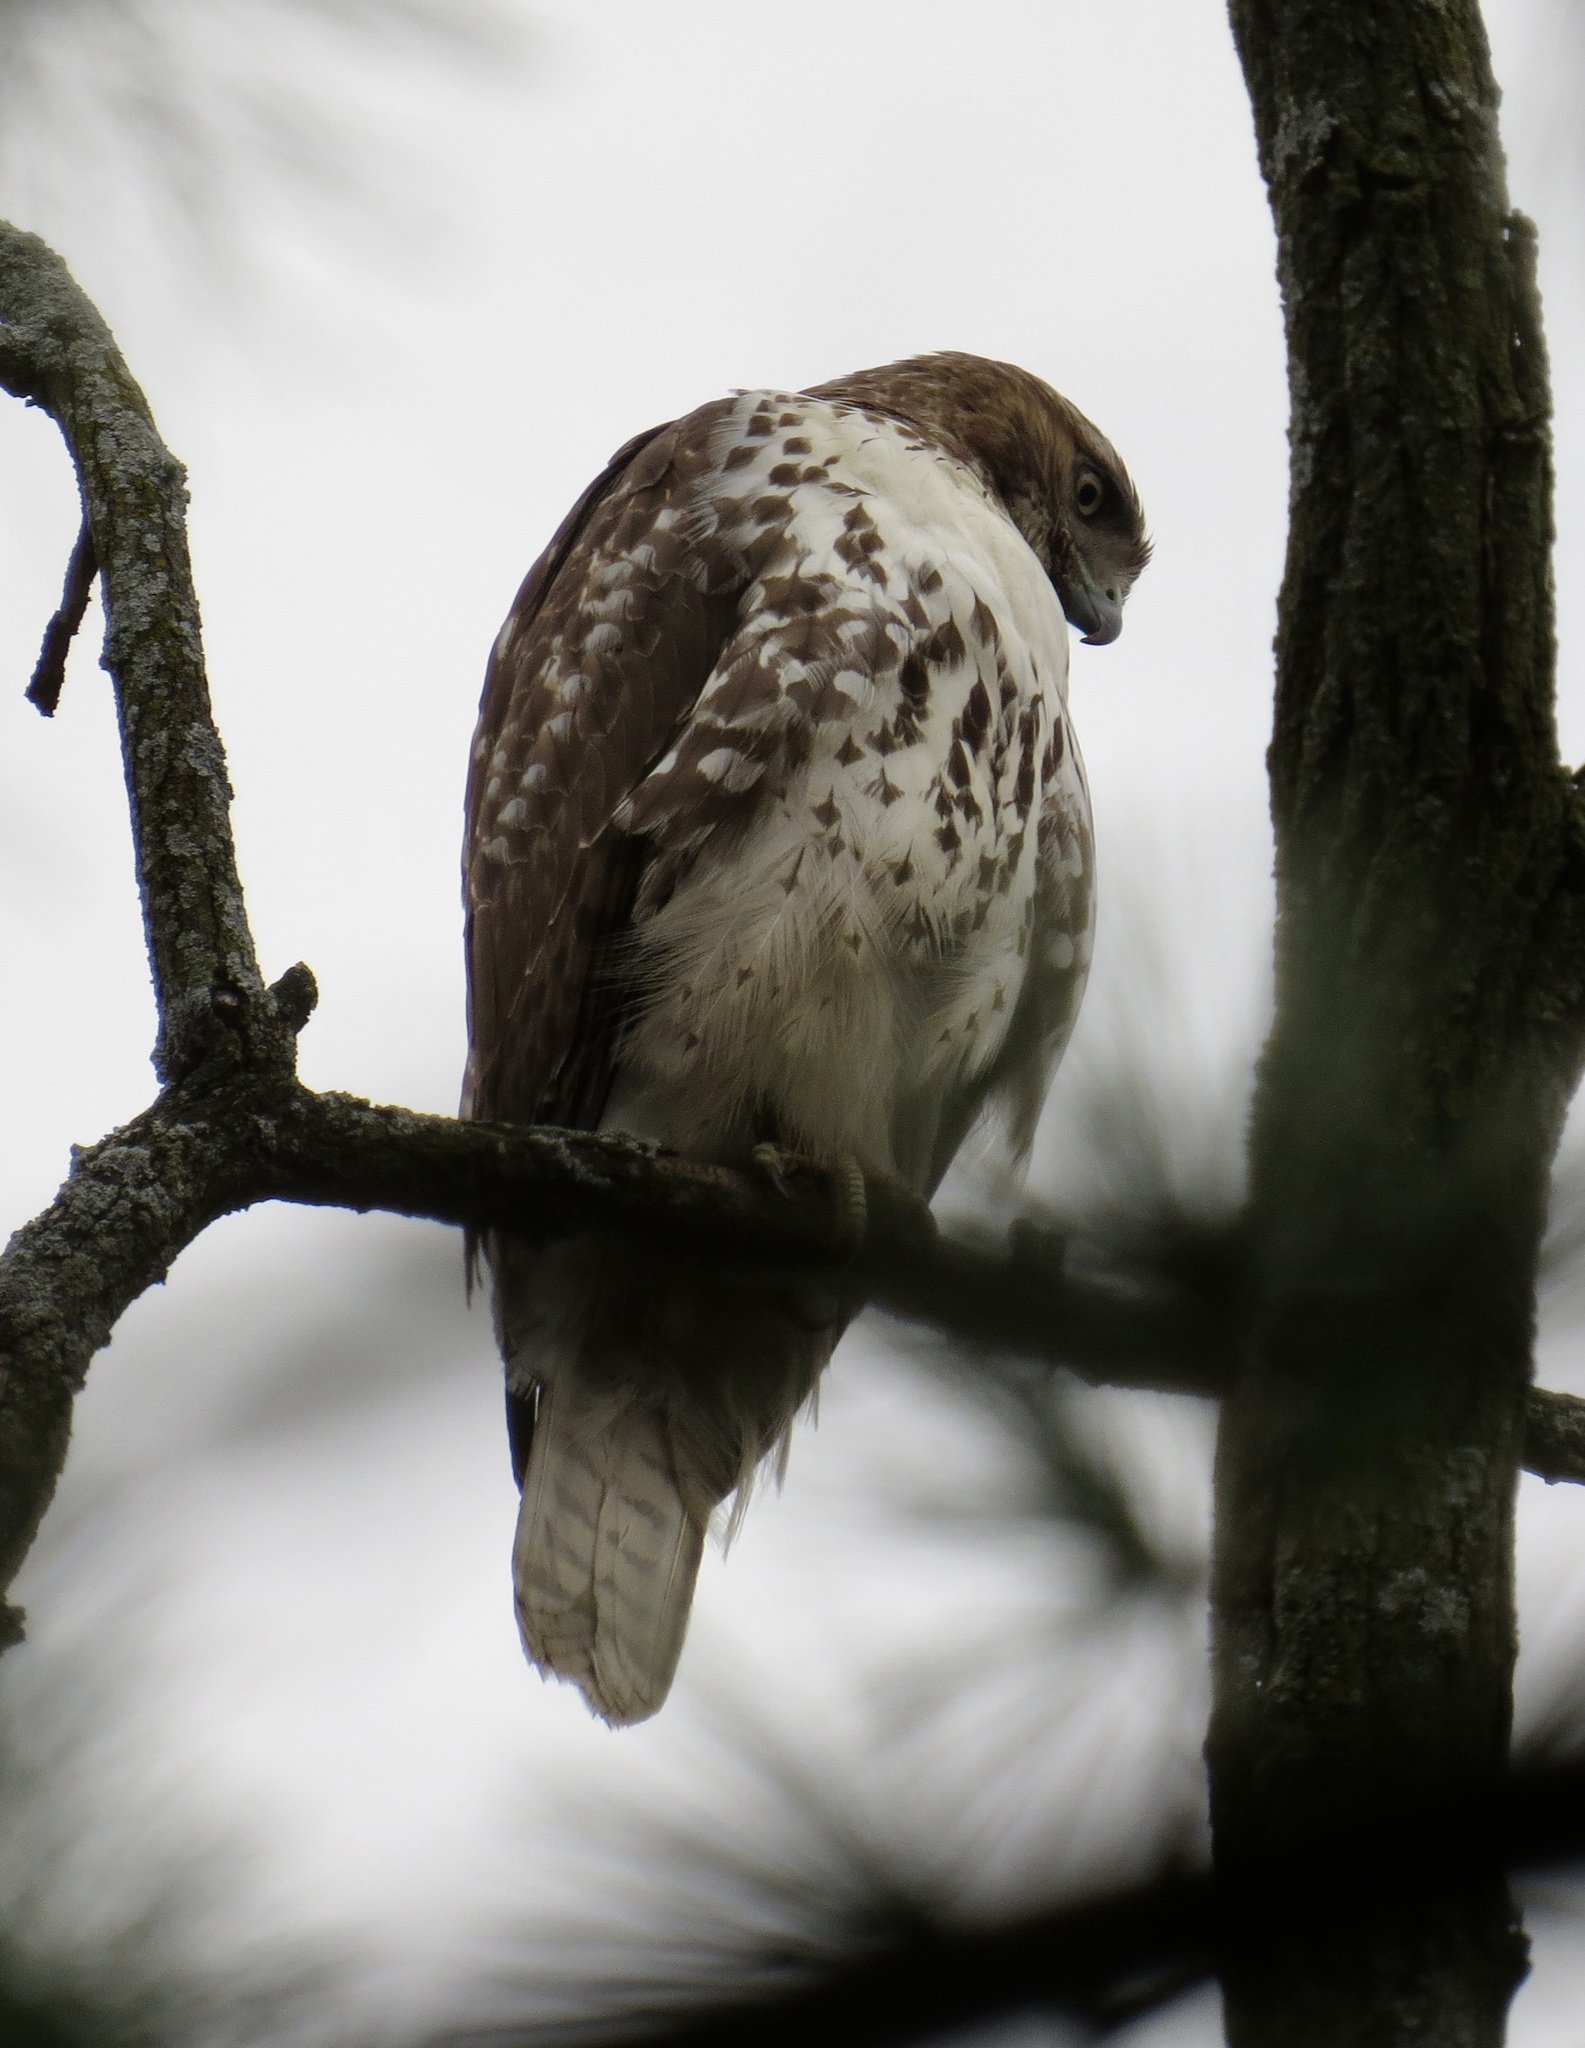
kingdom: Animalia
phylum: Chordata
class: Aves
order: Accipitriformes
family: Accipitridae
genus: Buteo
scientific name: Buteo jamaicensis
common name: Red-tailed hawk
